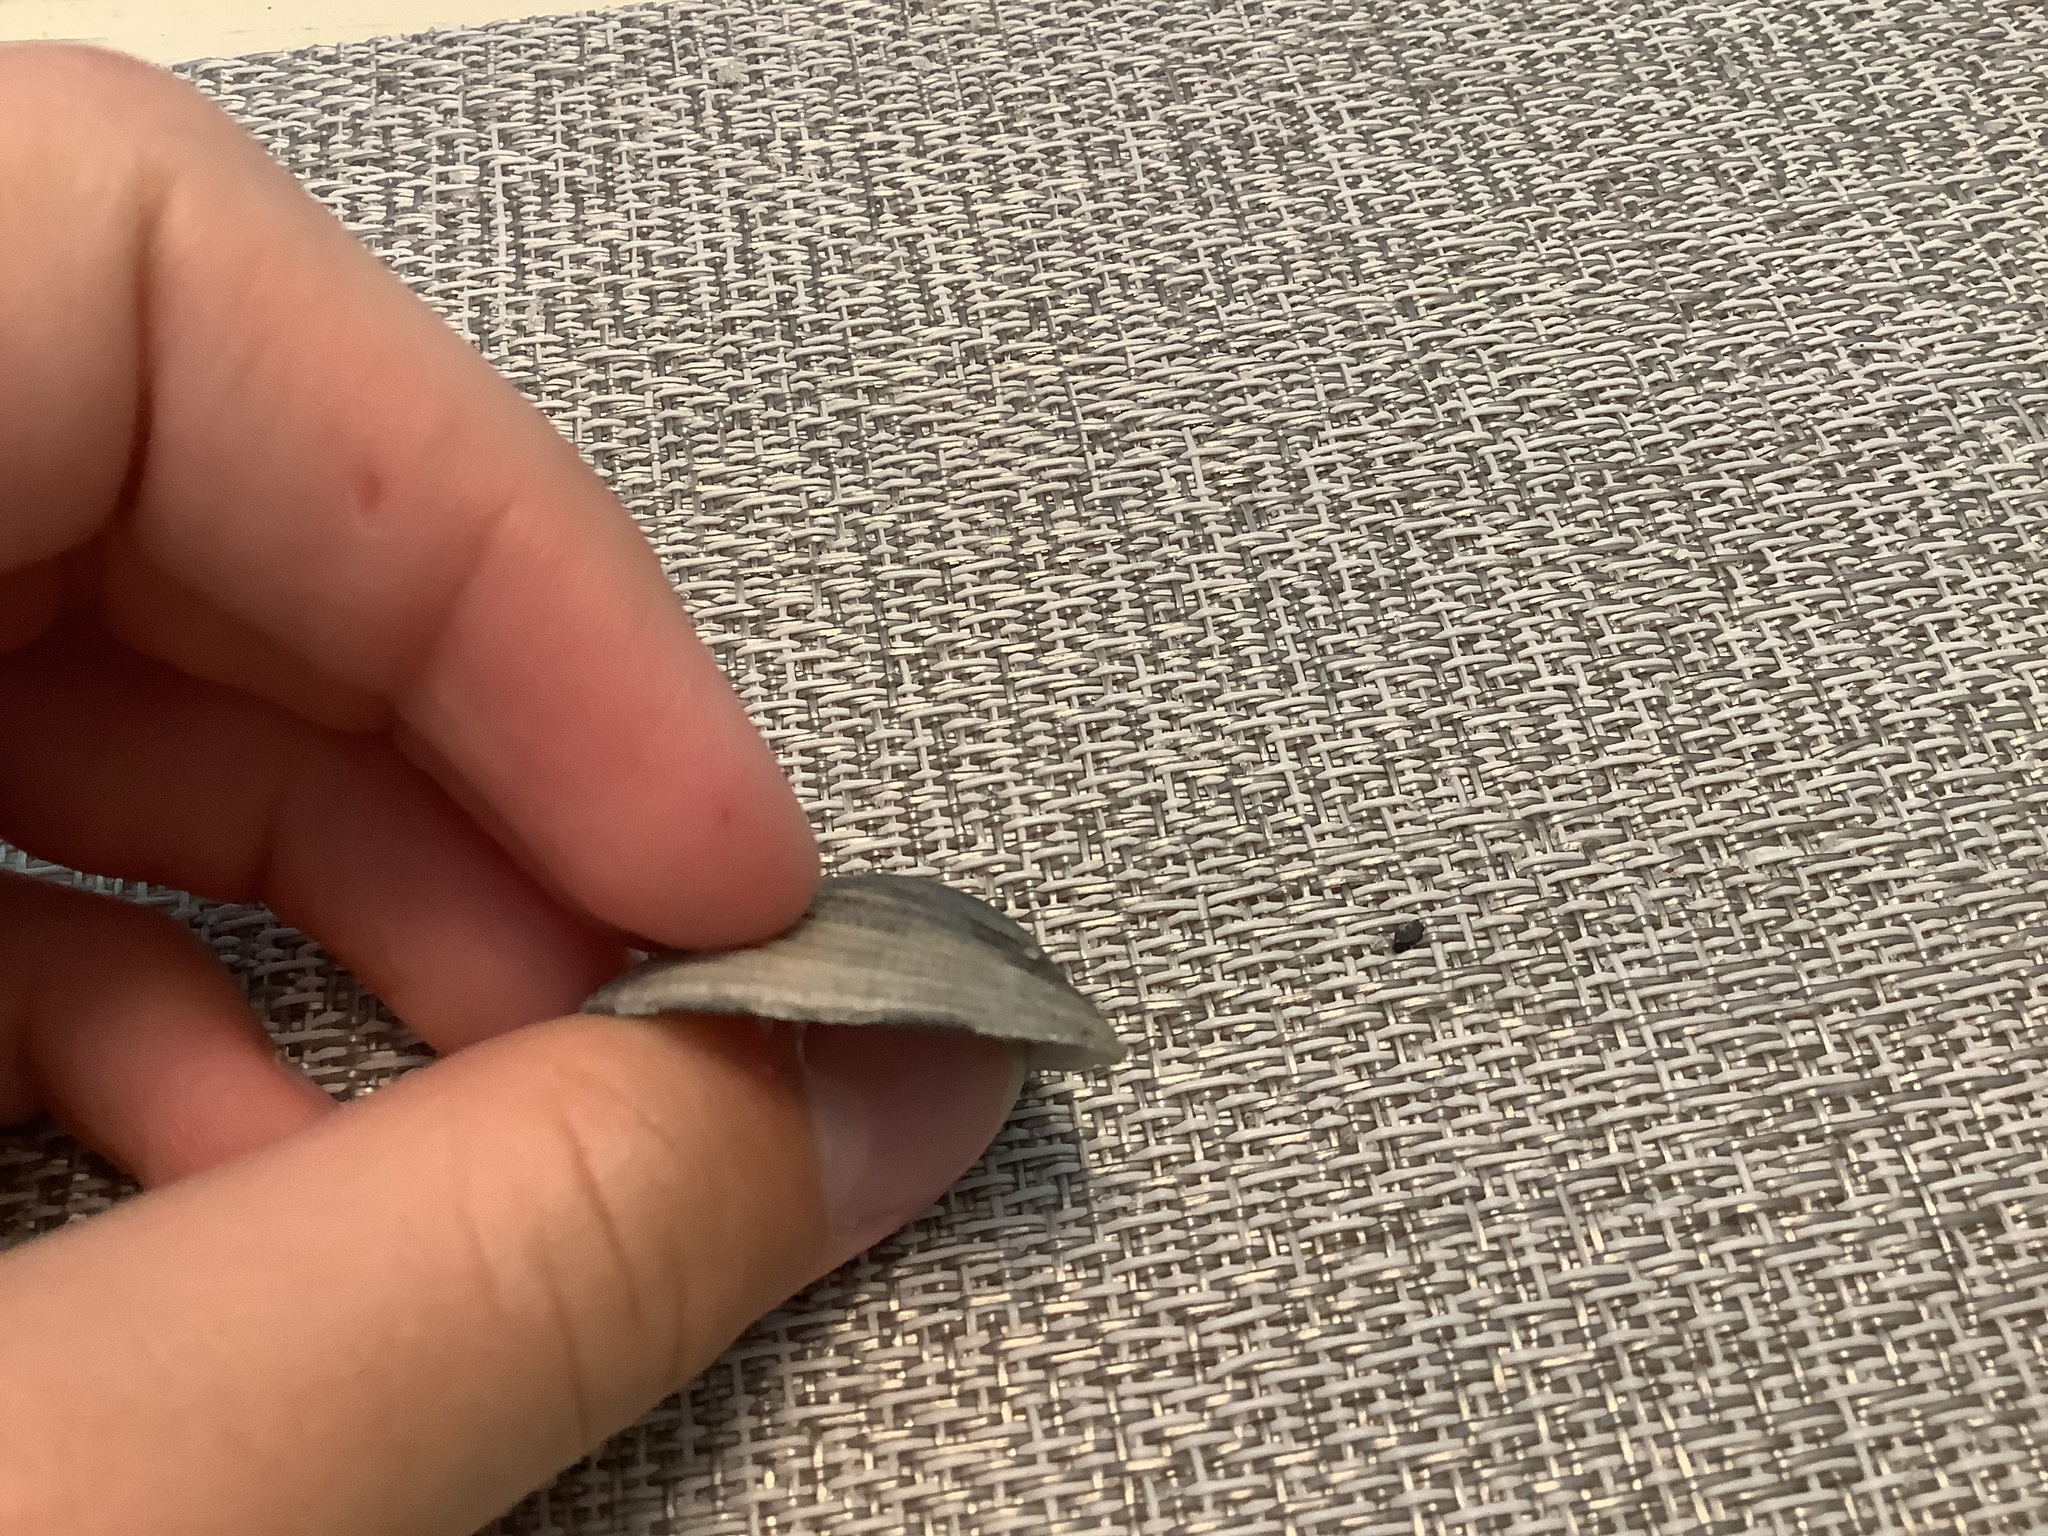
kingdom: Animalia
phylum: Mollusca
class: Bivalvia
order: Venerida
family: Veneridae
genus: Chionopsis
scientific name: Chionopsis intapurpurea
